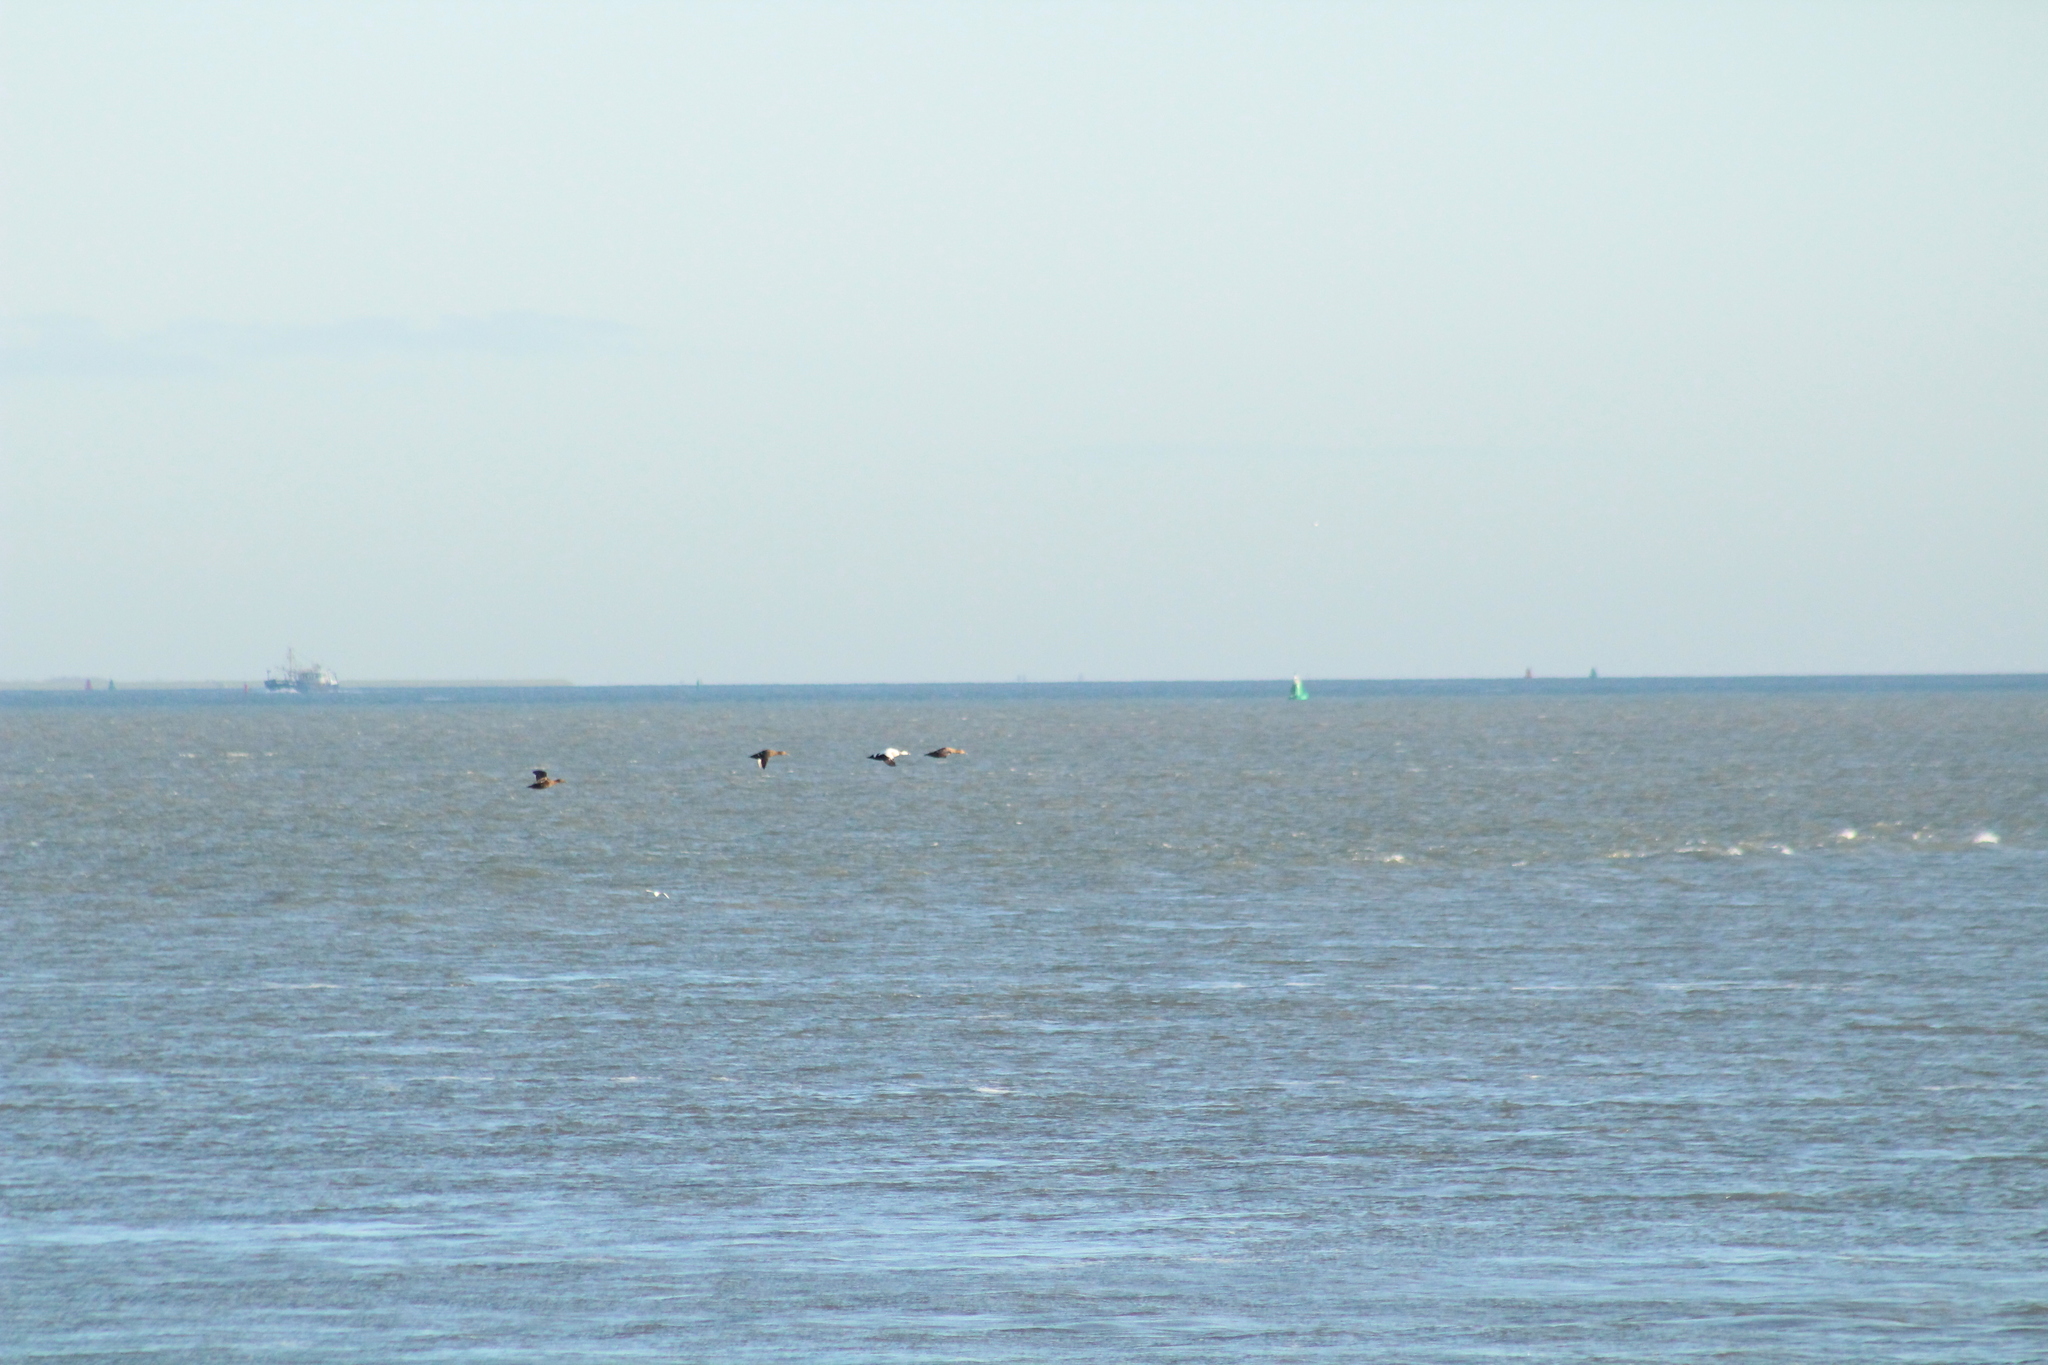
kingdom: Animalia
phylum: Chordata
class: Aves
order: Anseriformes
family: Anatidae
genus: Somateria
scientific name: Somateria mollissima
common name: Common eider
